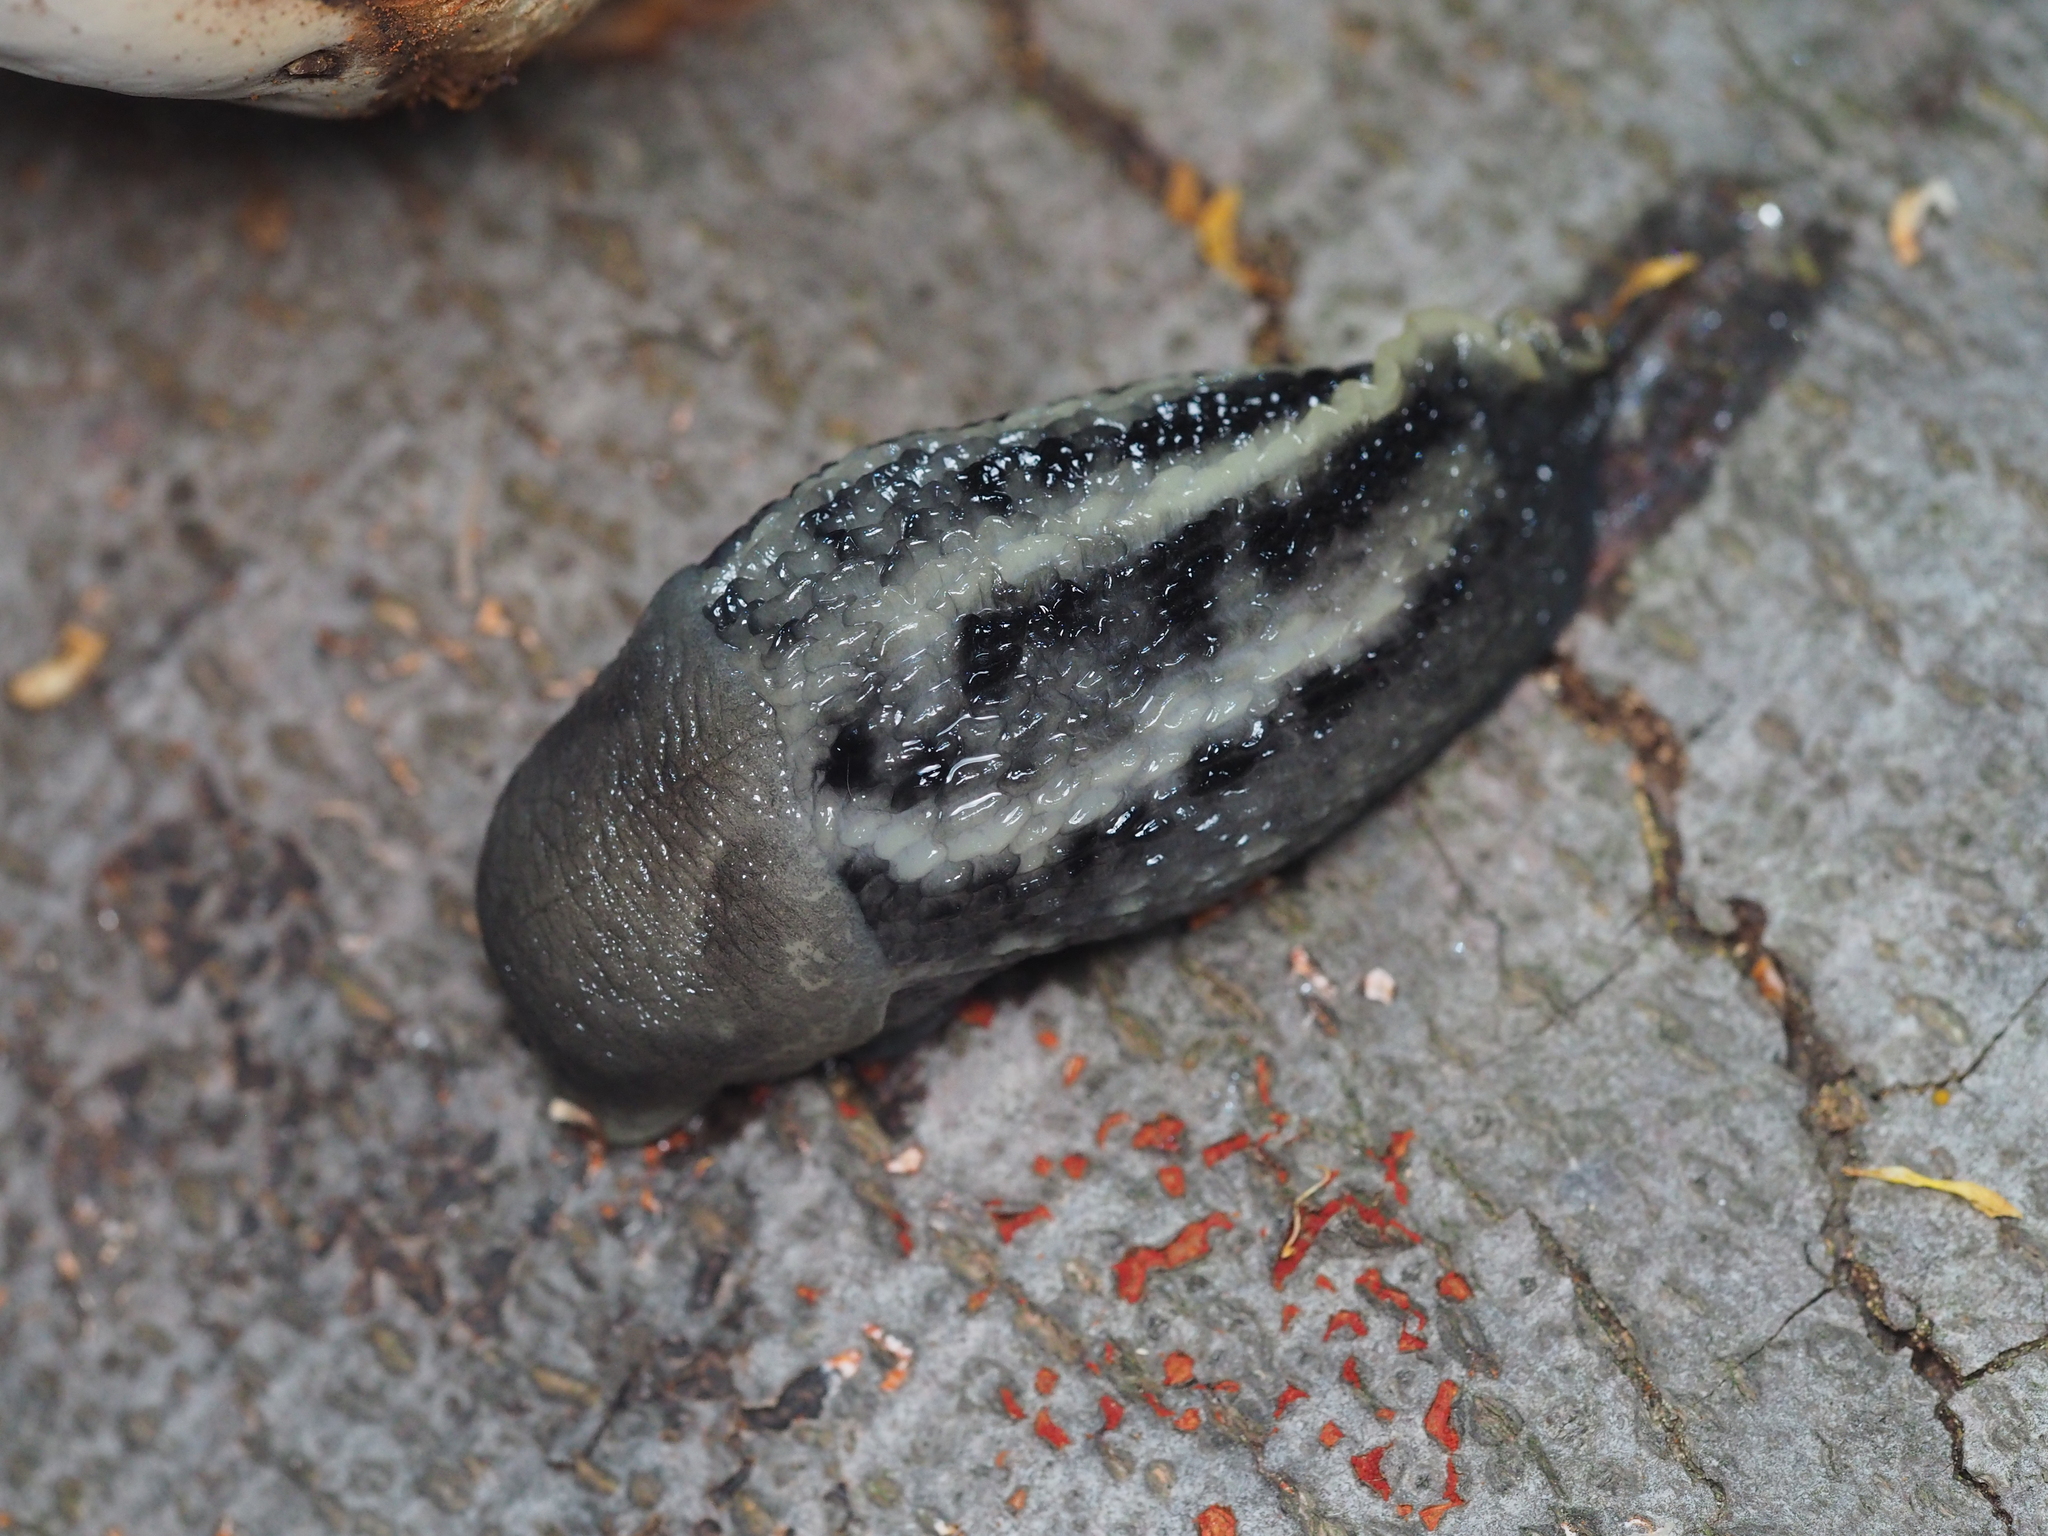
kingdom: Animalia
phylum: Mollusca
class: Gastropoda
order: Stylommatophora
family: Limacidae
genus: Limax
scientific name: Limax cinereoniger
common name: Ash-black slug
